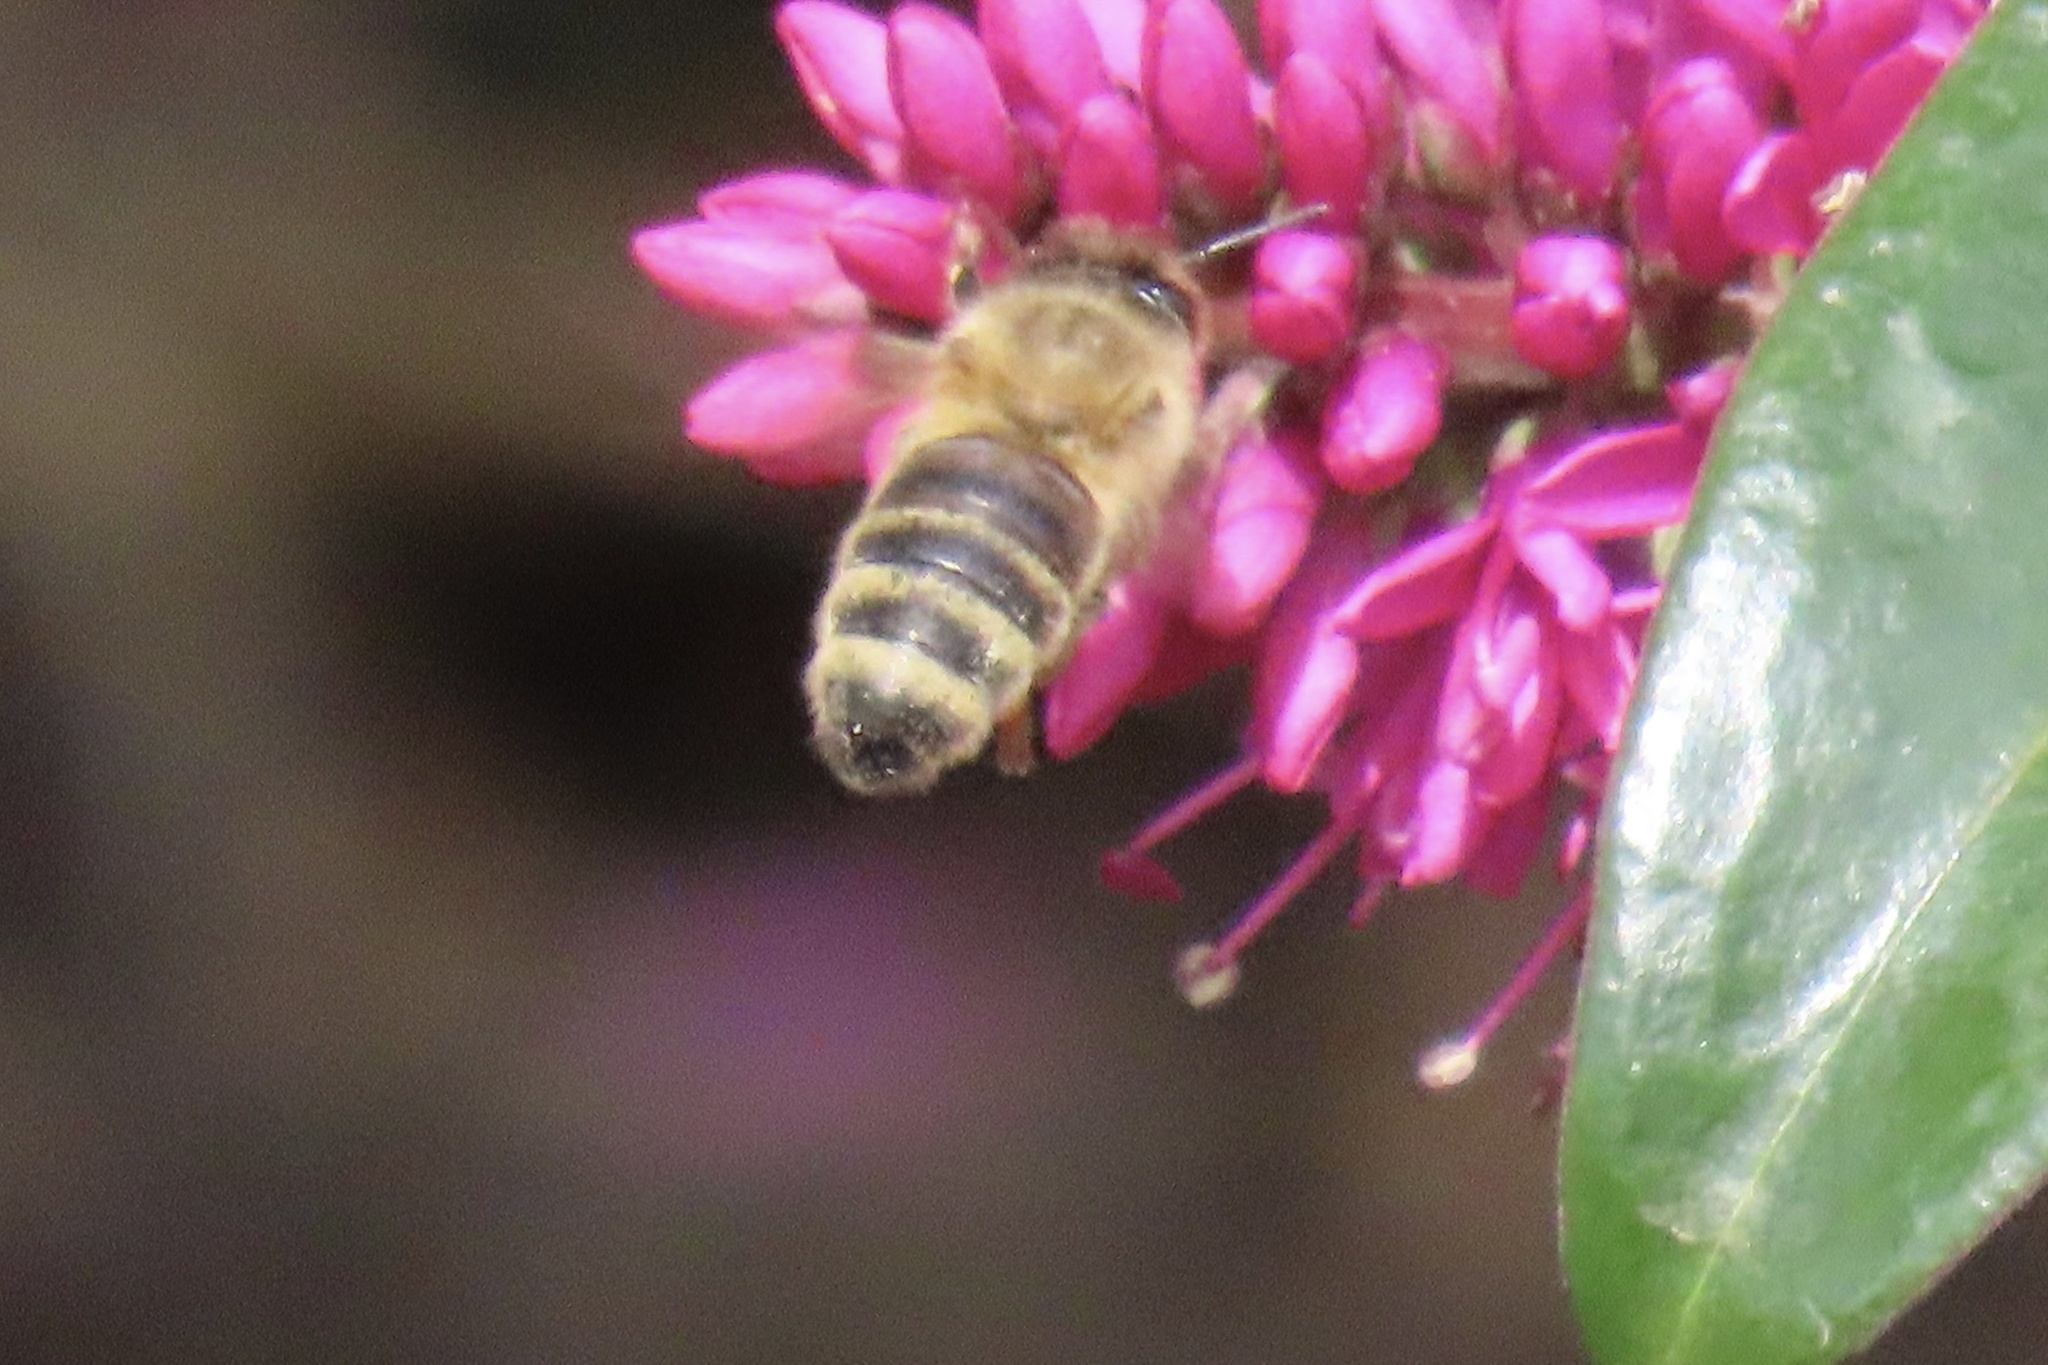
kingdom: Animalia
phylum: Arthropoda
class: Insecta
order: Hymenoptera
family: Apidae
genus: Apis
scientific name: Apis mellifera
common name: Honey bee
